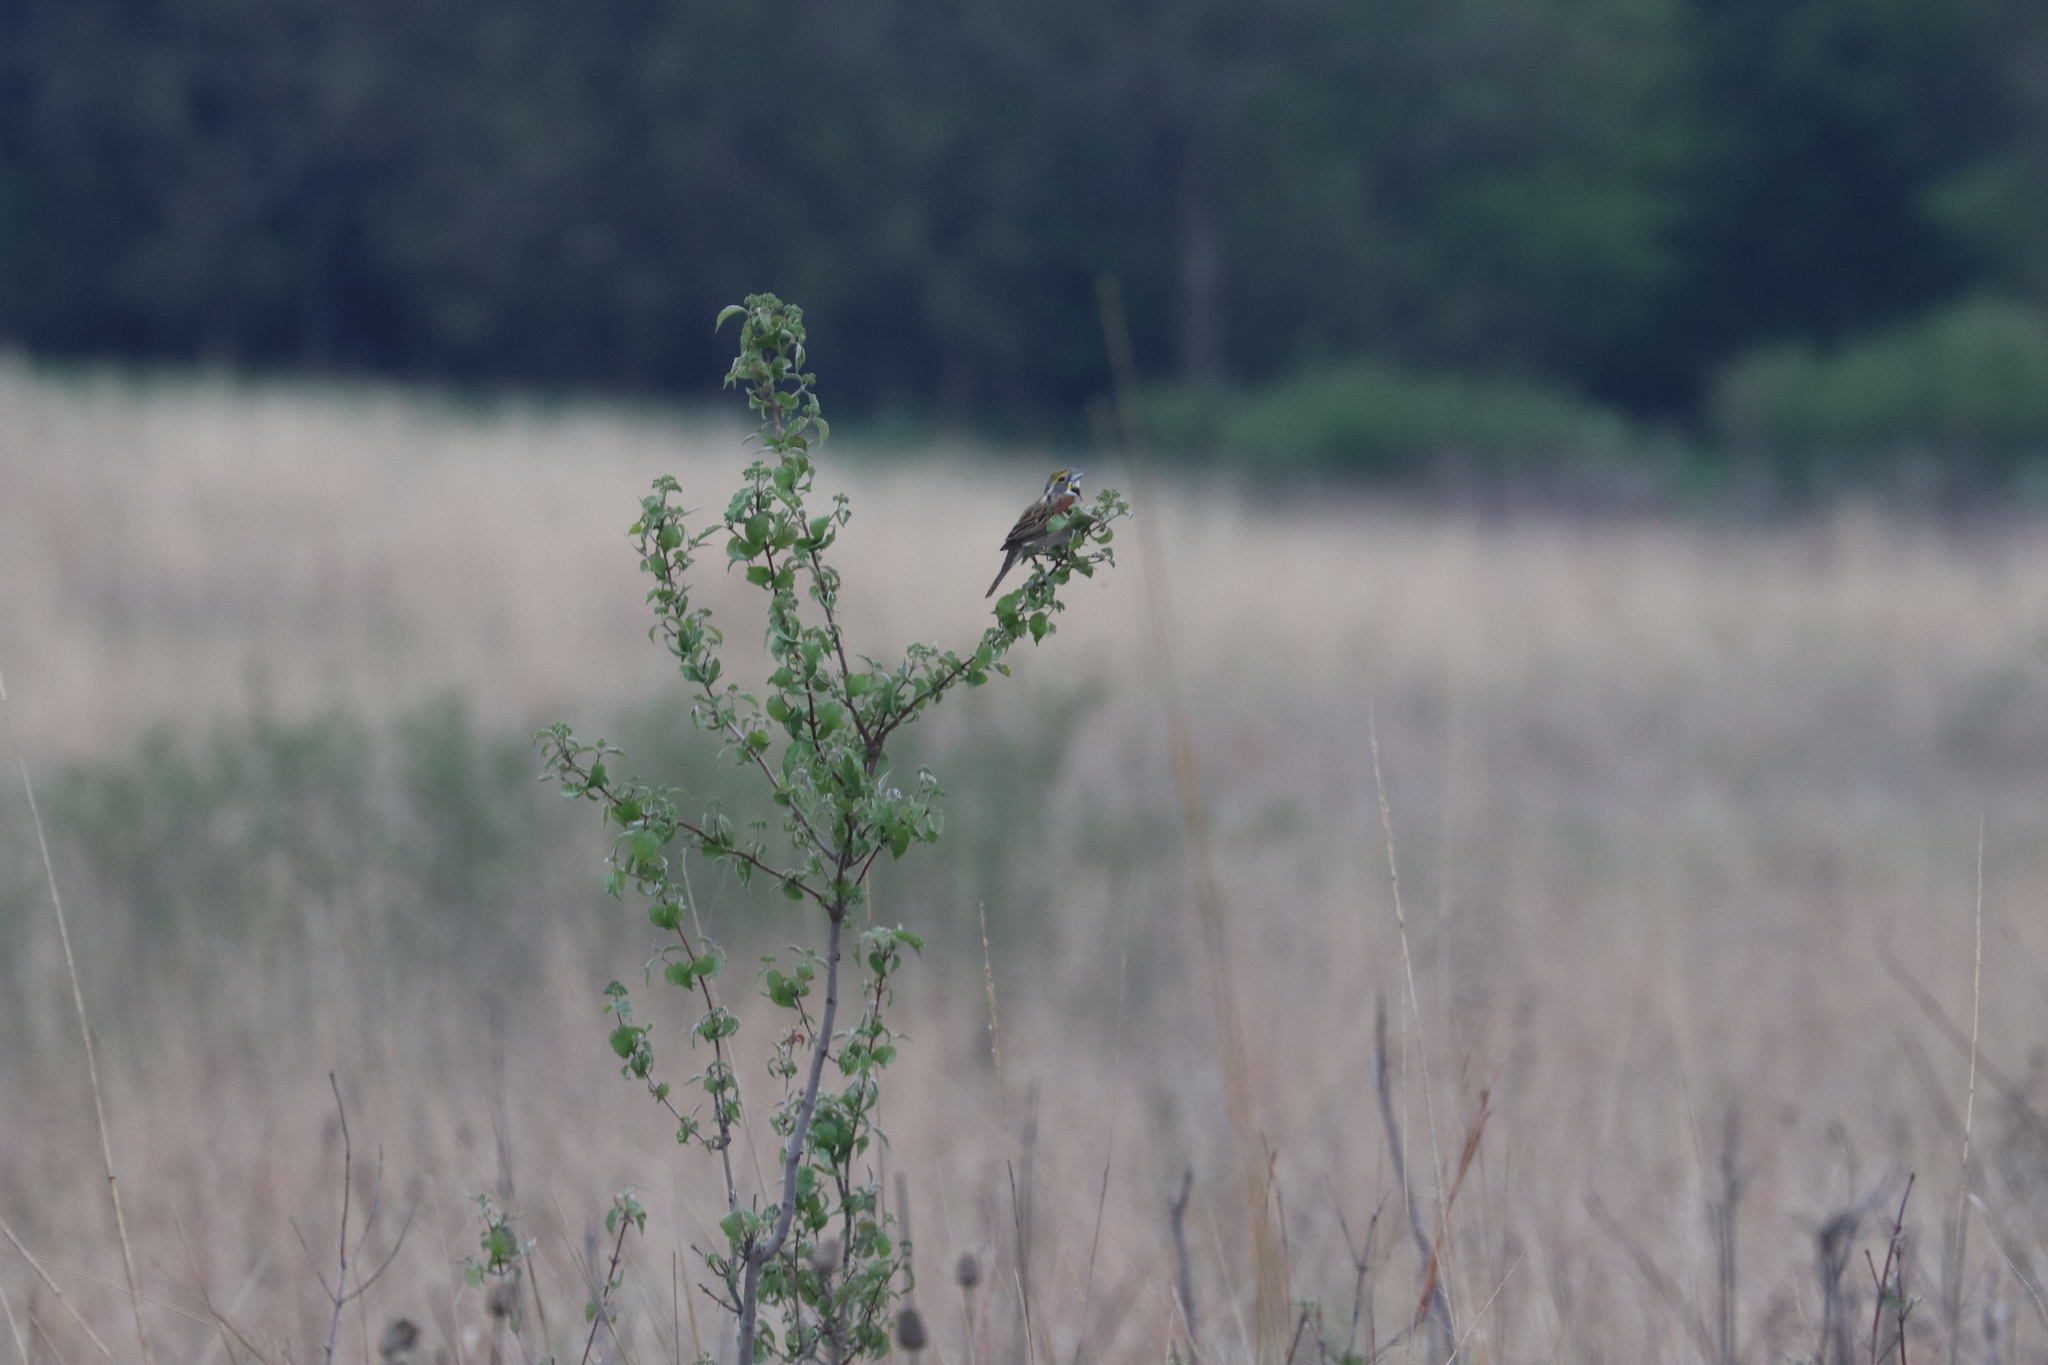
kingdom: Animalia
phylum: Chordata
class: Aves
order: Passeriformes
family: Cardinalidae
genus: Spiza
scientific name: Spiza americana
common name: Dickcissel
